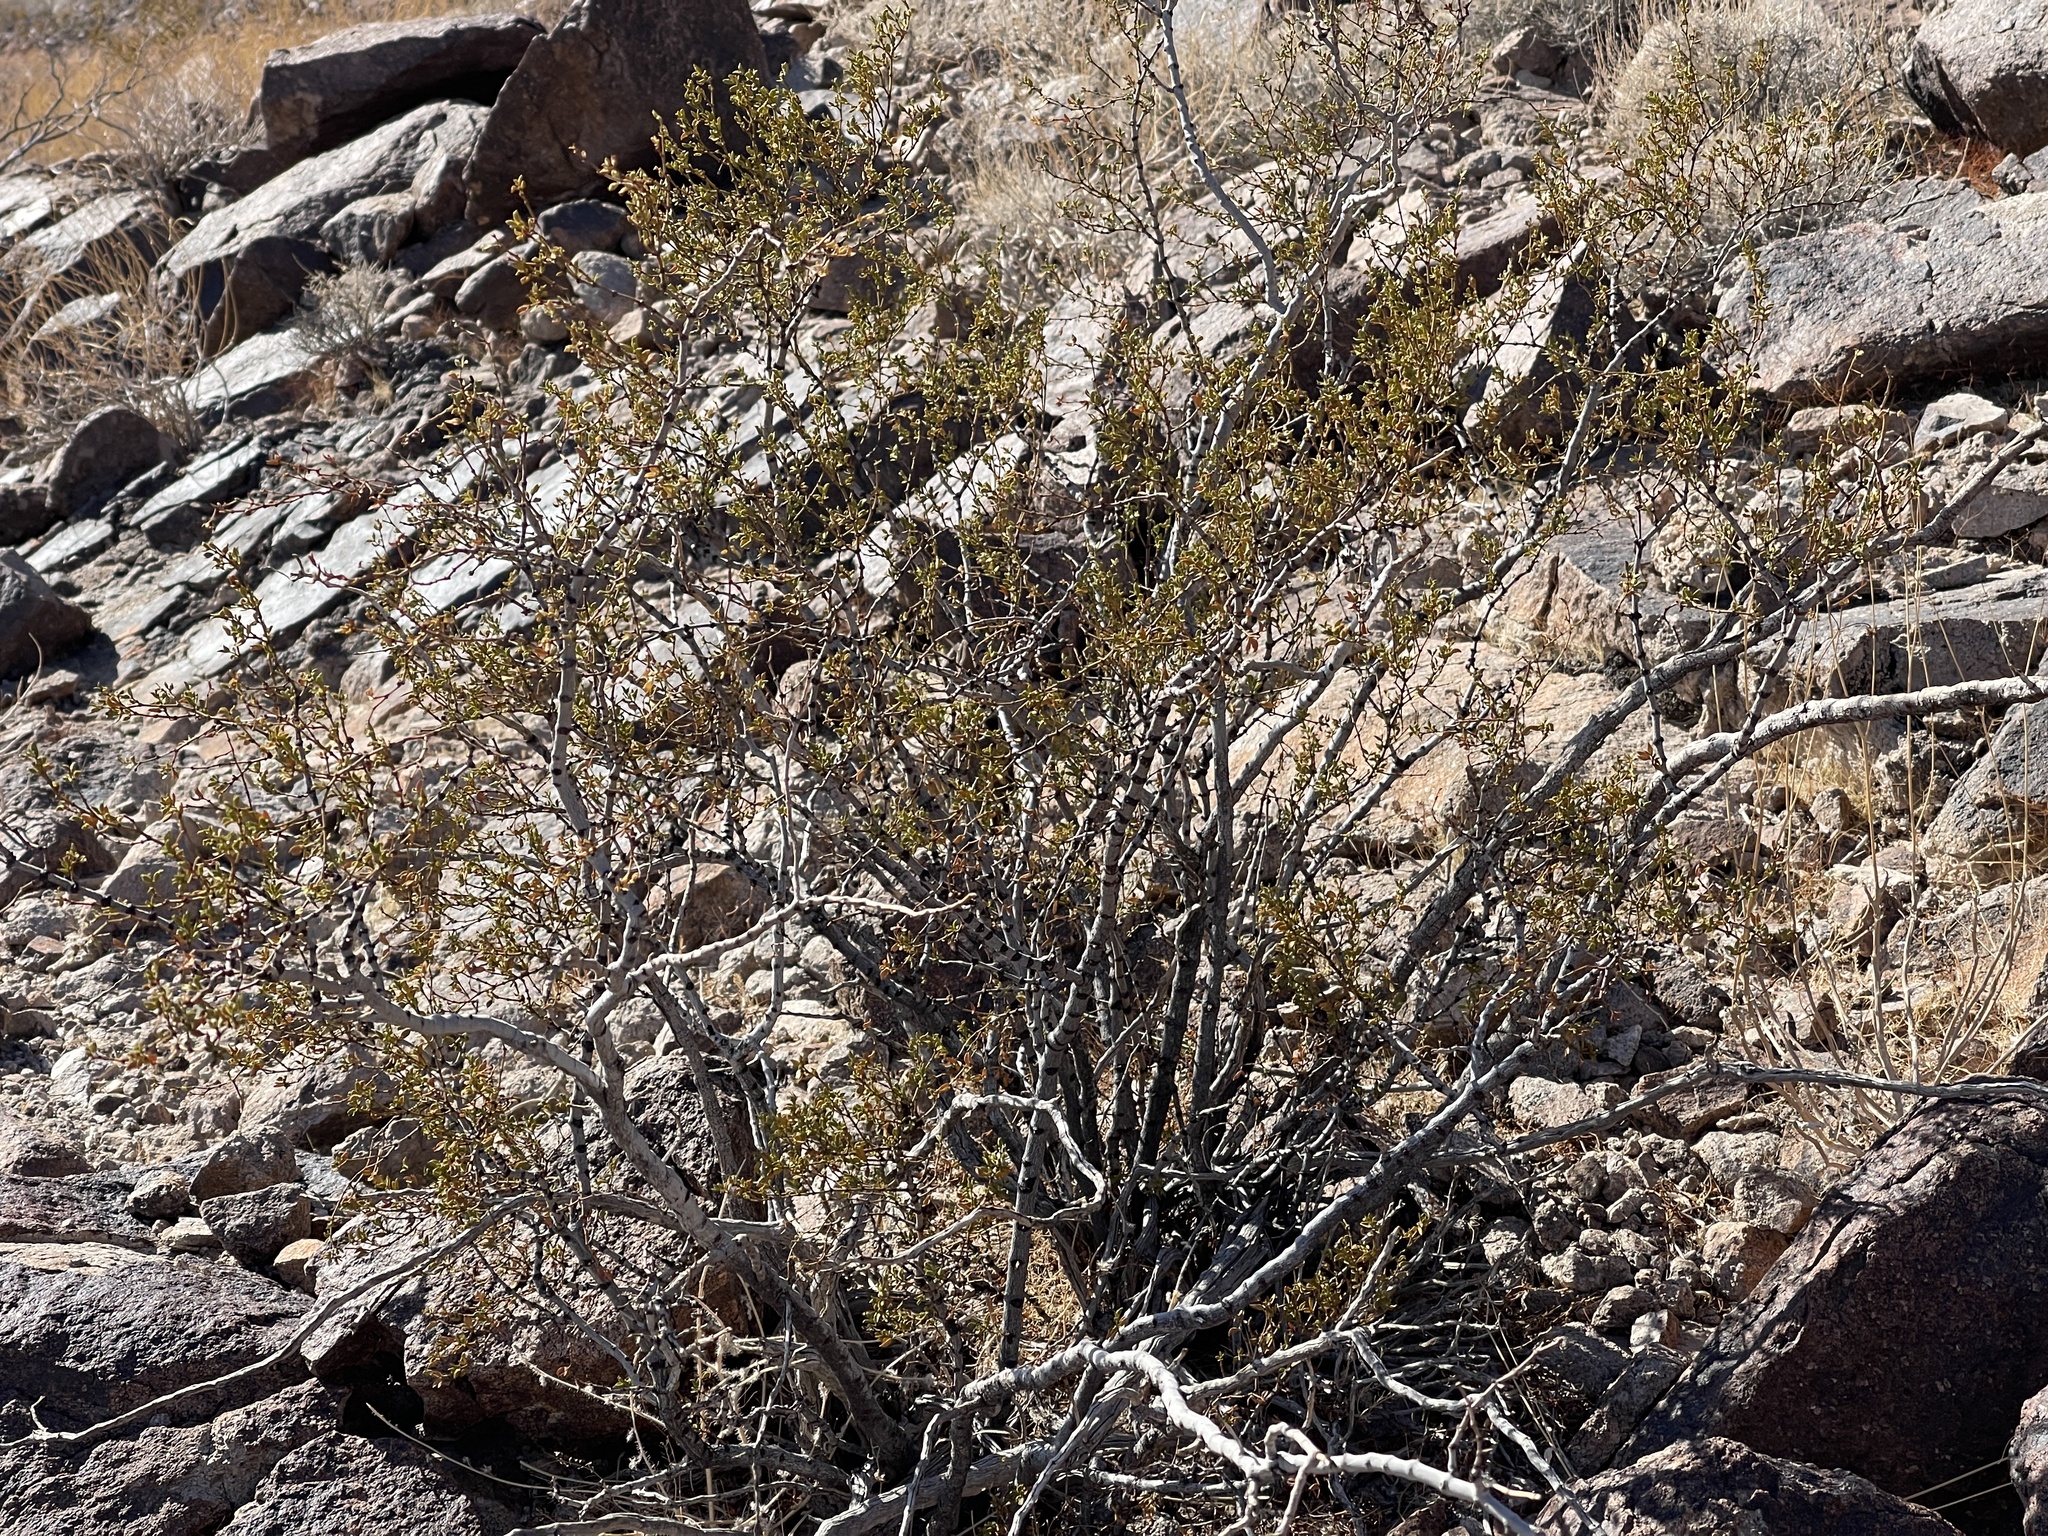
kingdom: Plantae
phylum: Tracheophyta
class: Magnoliopsida
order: Zygophyllales
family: Zygophyllaceae
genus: Larrea
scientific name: Larrea tridentata
